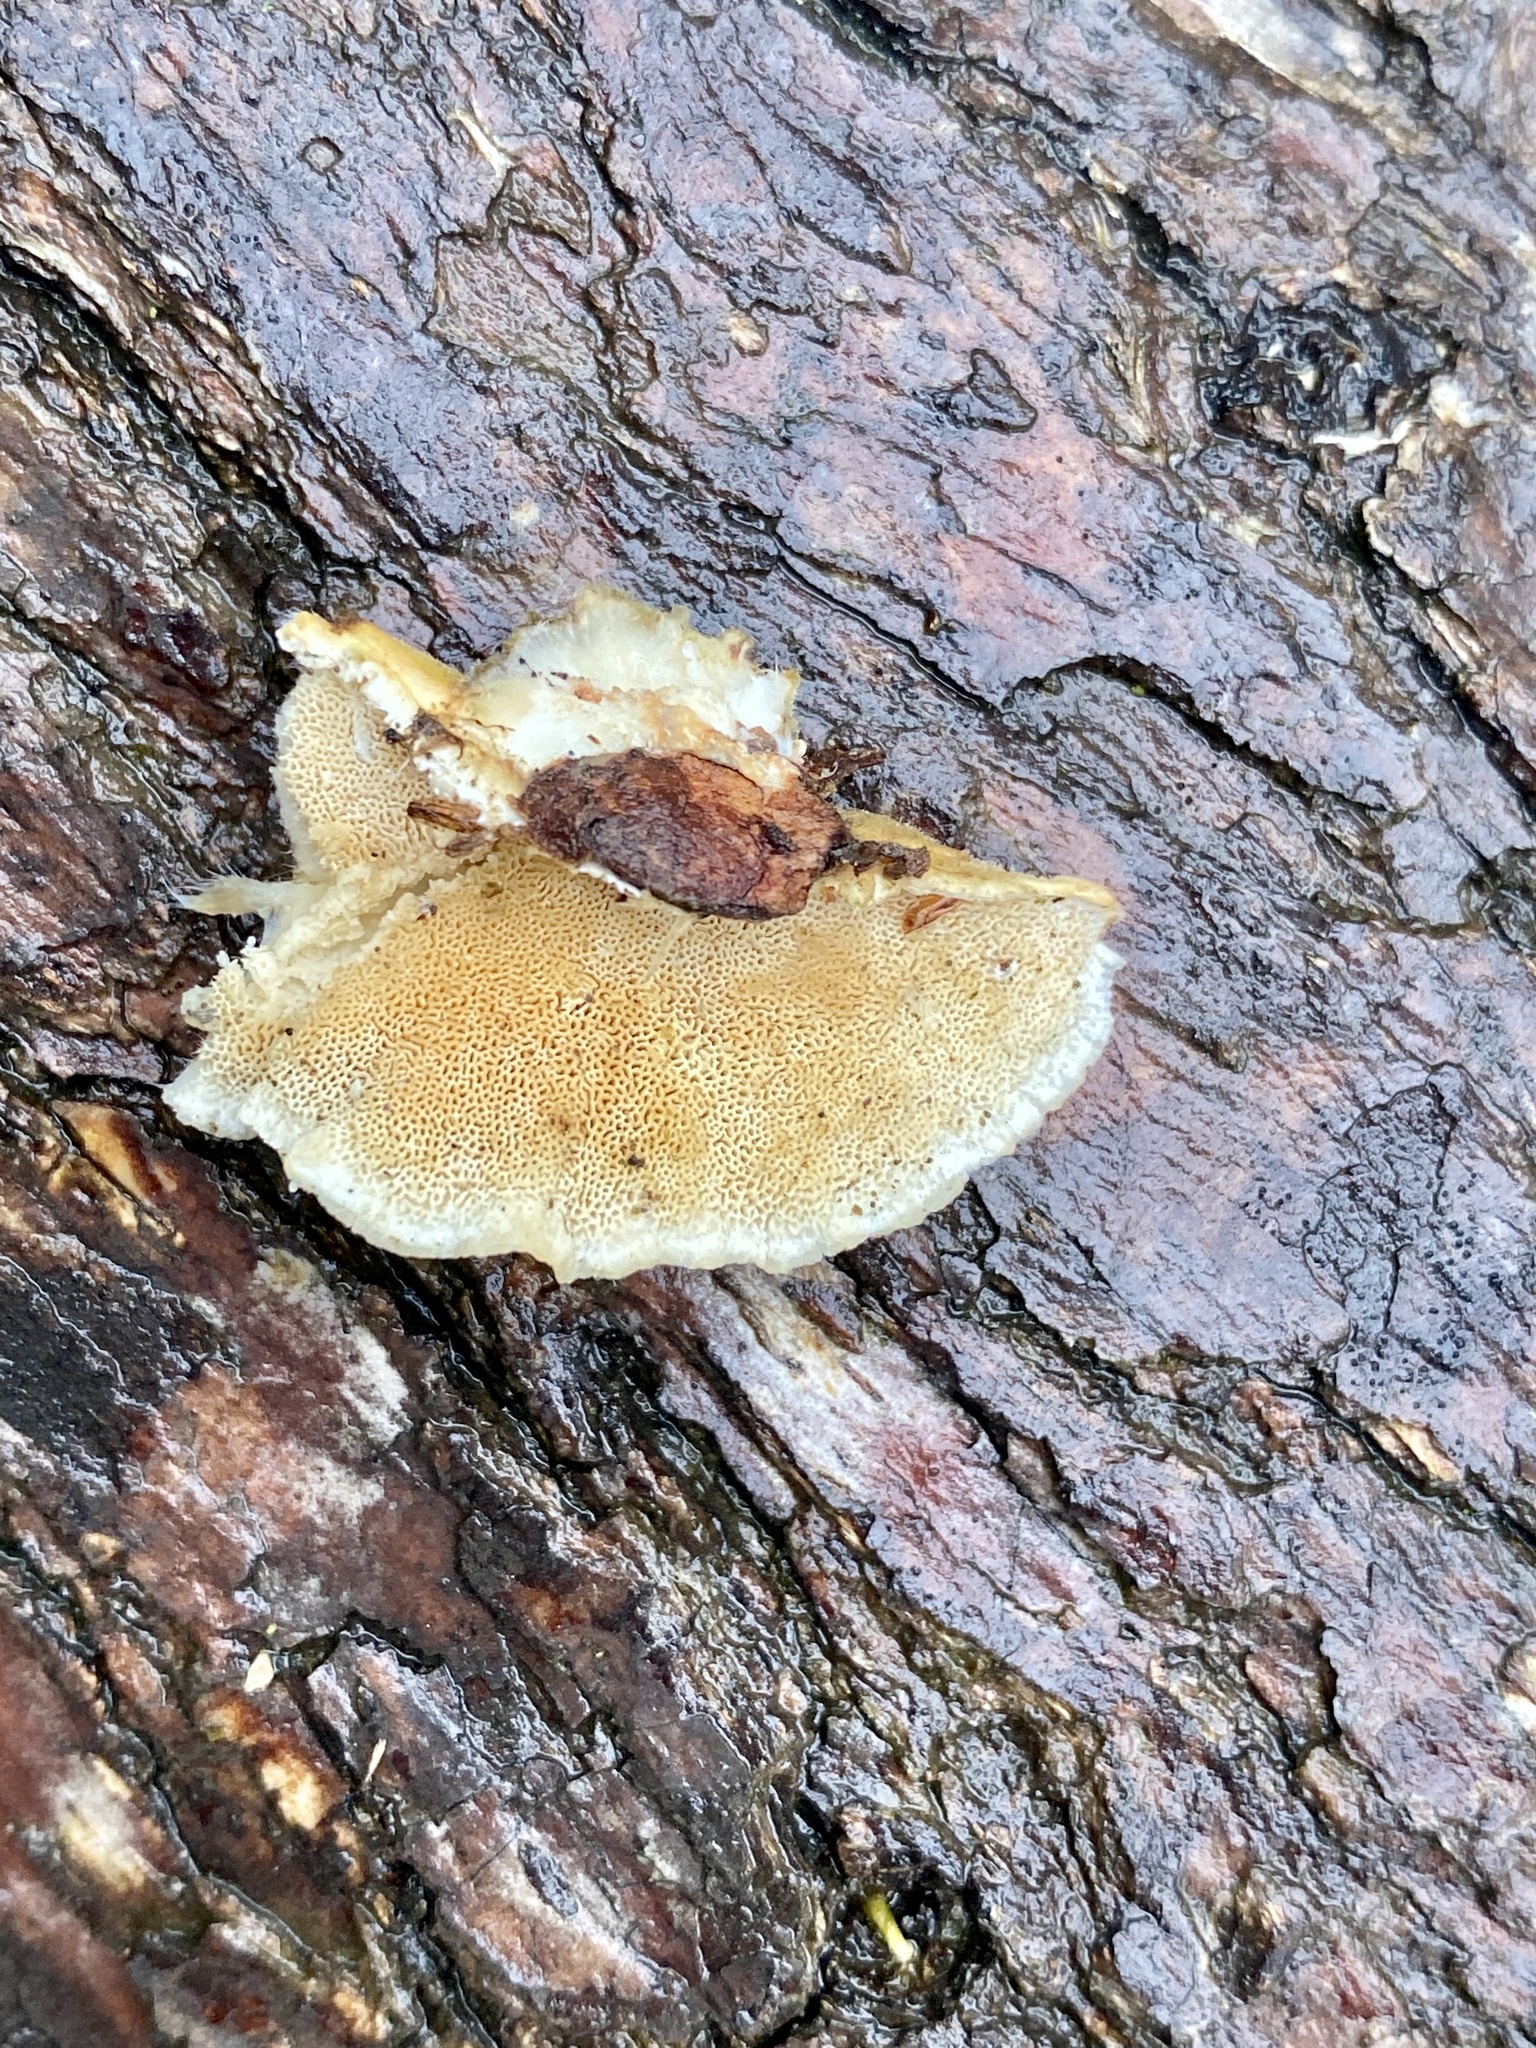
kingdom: Fungi
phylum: Basidiomycota
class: Agaricomycetes
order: Polyporales
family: Polyporaceae
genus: Trametes
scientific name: Trametes versicolor
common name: Turkeytail
